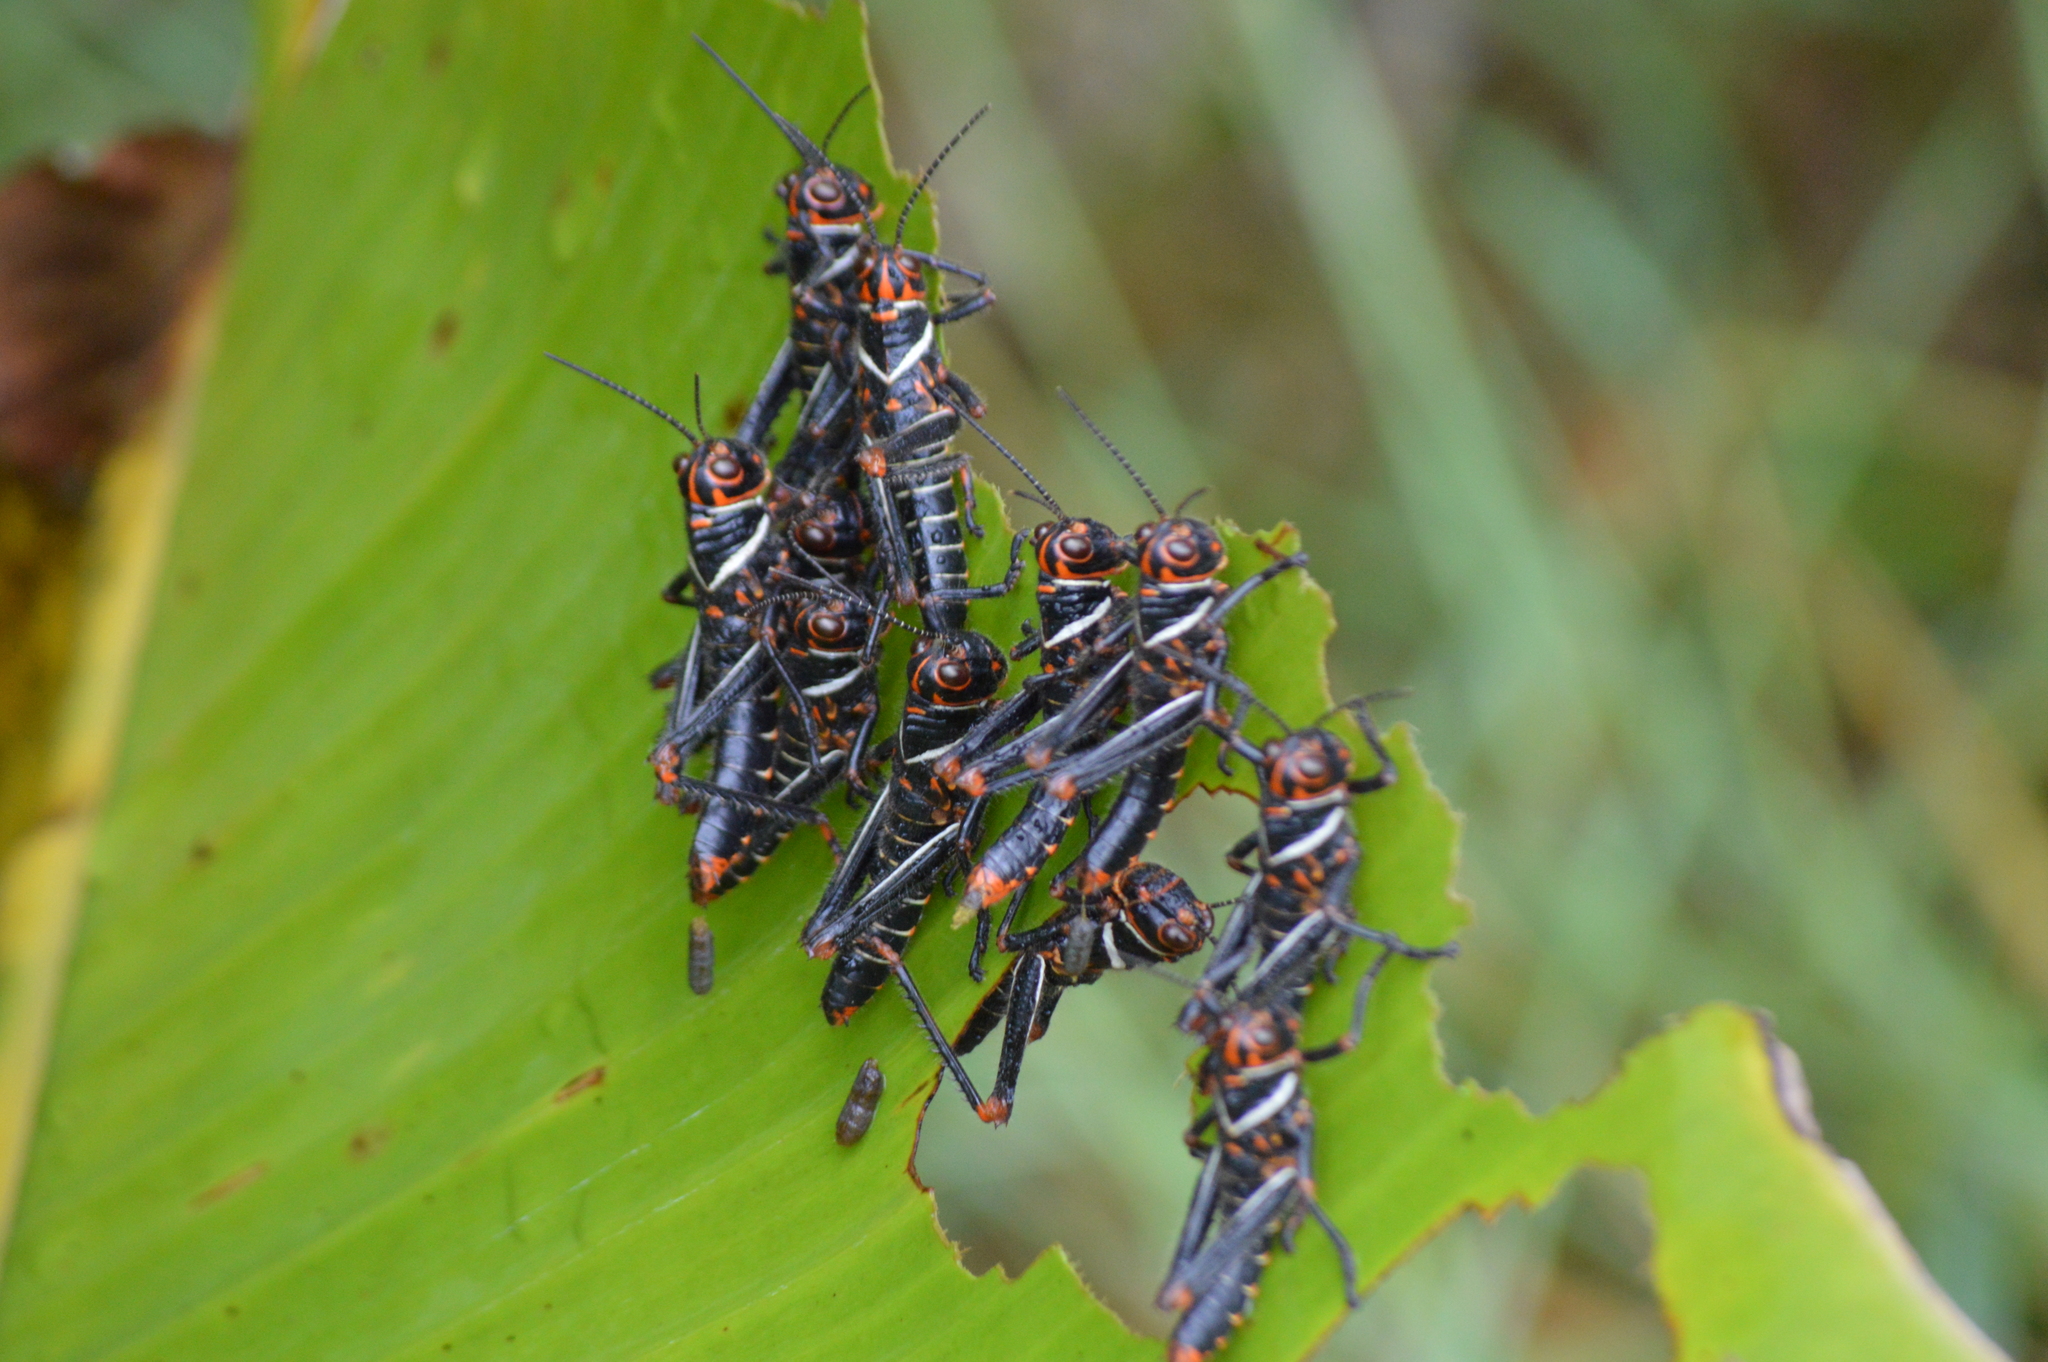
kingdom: Animalia
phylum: Arthropoda
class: Insecta
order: Orthoptera
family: Romaleidae
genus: Tropidacris
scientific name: Tropidacris collaris
